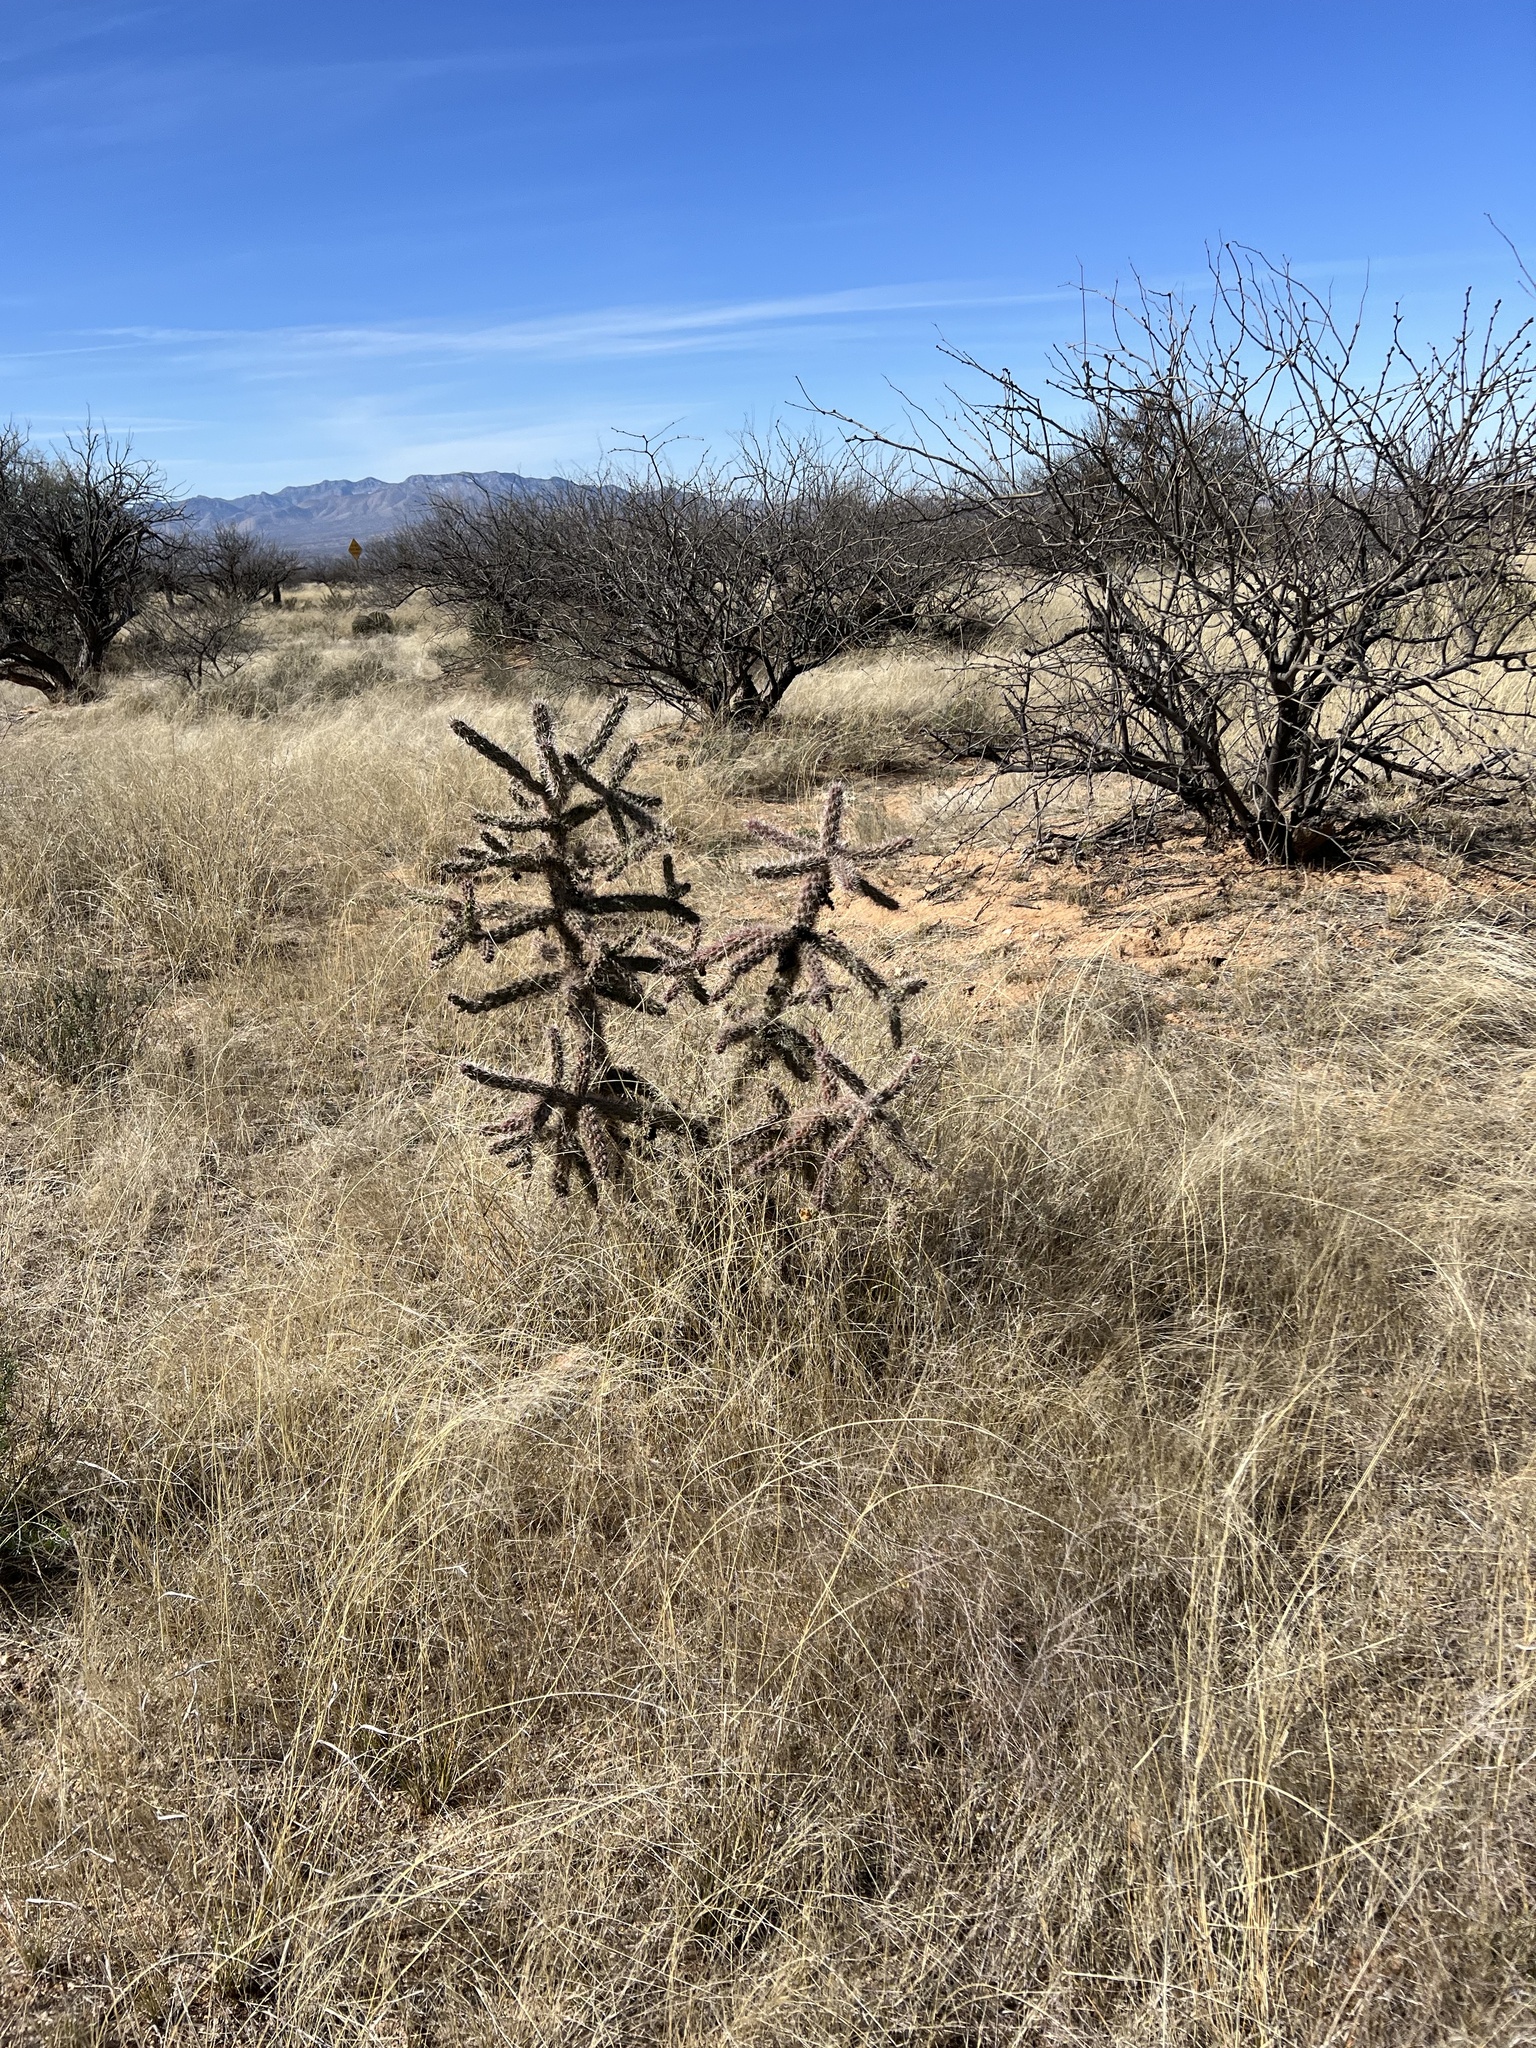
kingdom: Plantae
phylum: Tracheophyta
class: Magnoliopsida
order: Caryophyllales
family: Cactaceae
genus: Cylindropuntia
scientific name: Cylindropuntia imbricata
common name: Candelabrum cactus
